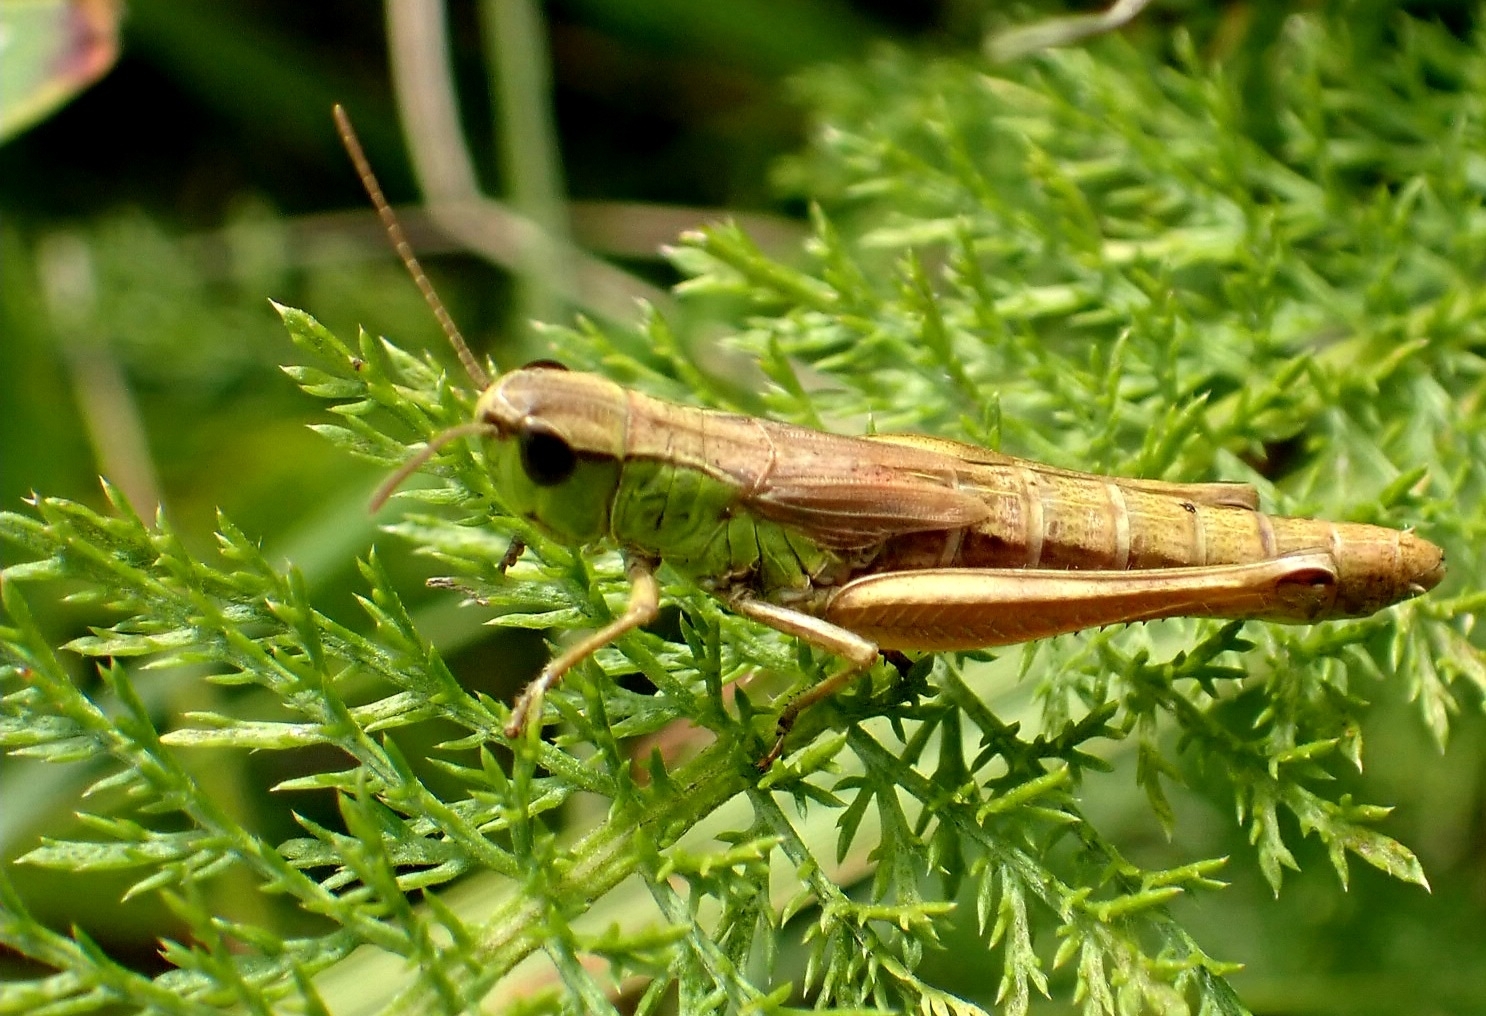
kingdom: Animalia
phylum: Arthropoda
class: Insecta
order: Orthoptera
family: Acrididae
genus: Pseudochorthippus
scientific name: Pseudochorthippus parallelus
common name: Meadow grasshopper
